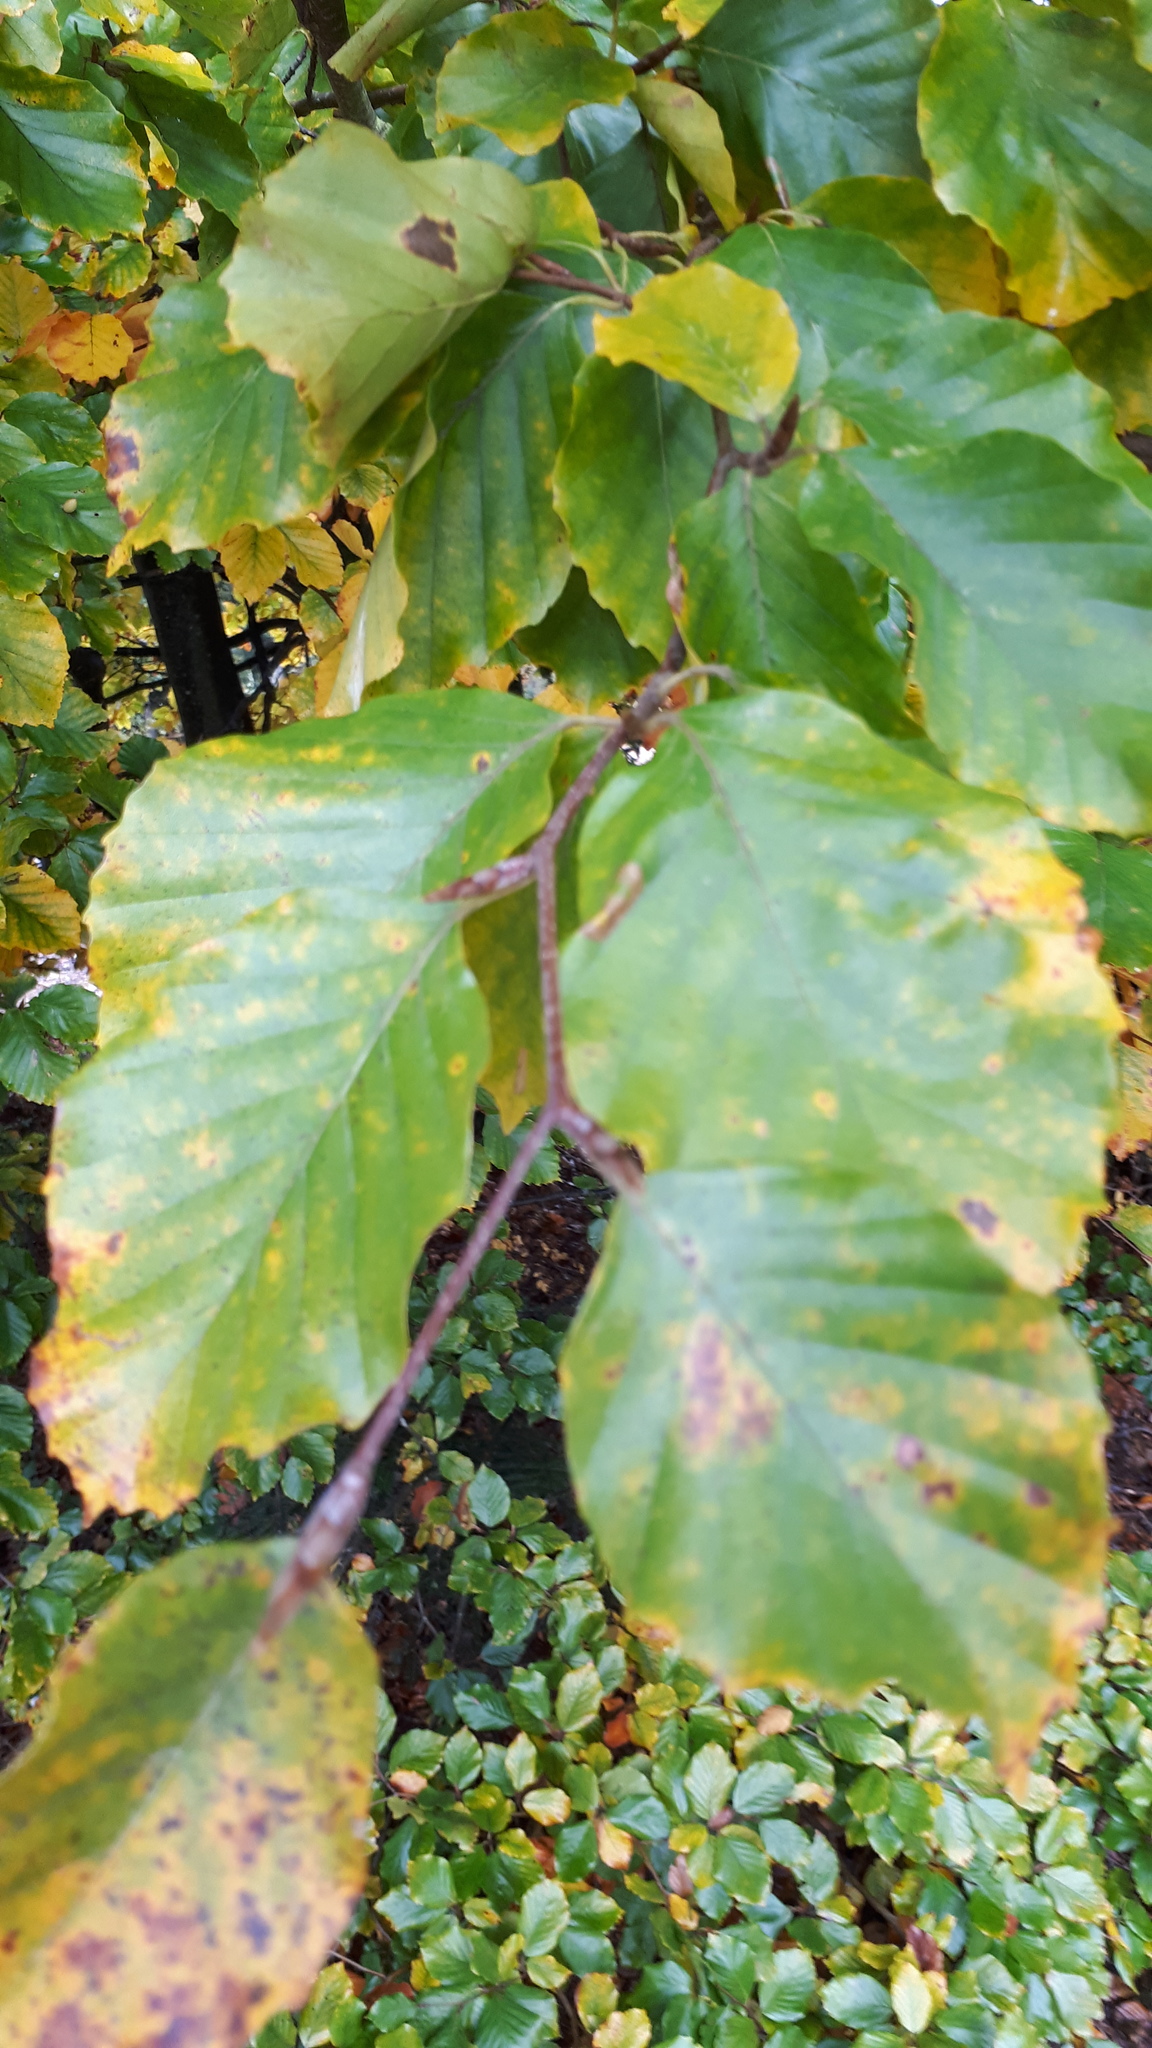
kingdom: Plantae
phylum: Tracheophyta
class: Magnoliopsida
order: Fagales
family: Fagaceae
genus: Fagus
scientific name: Fagus sylvatica
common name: Beech
